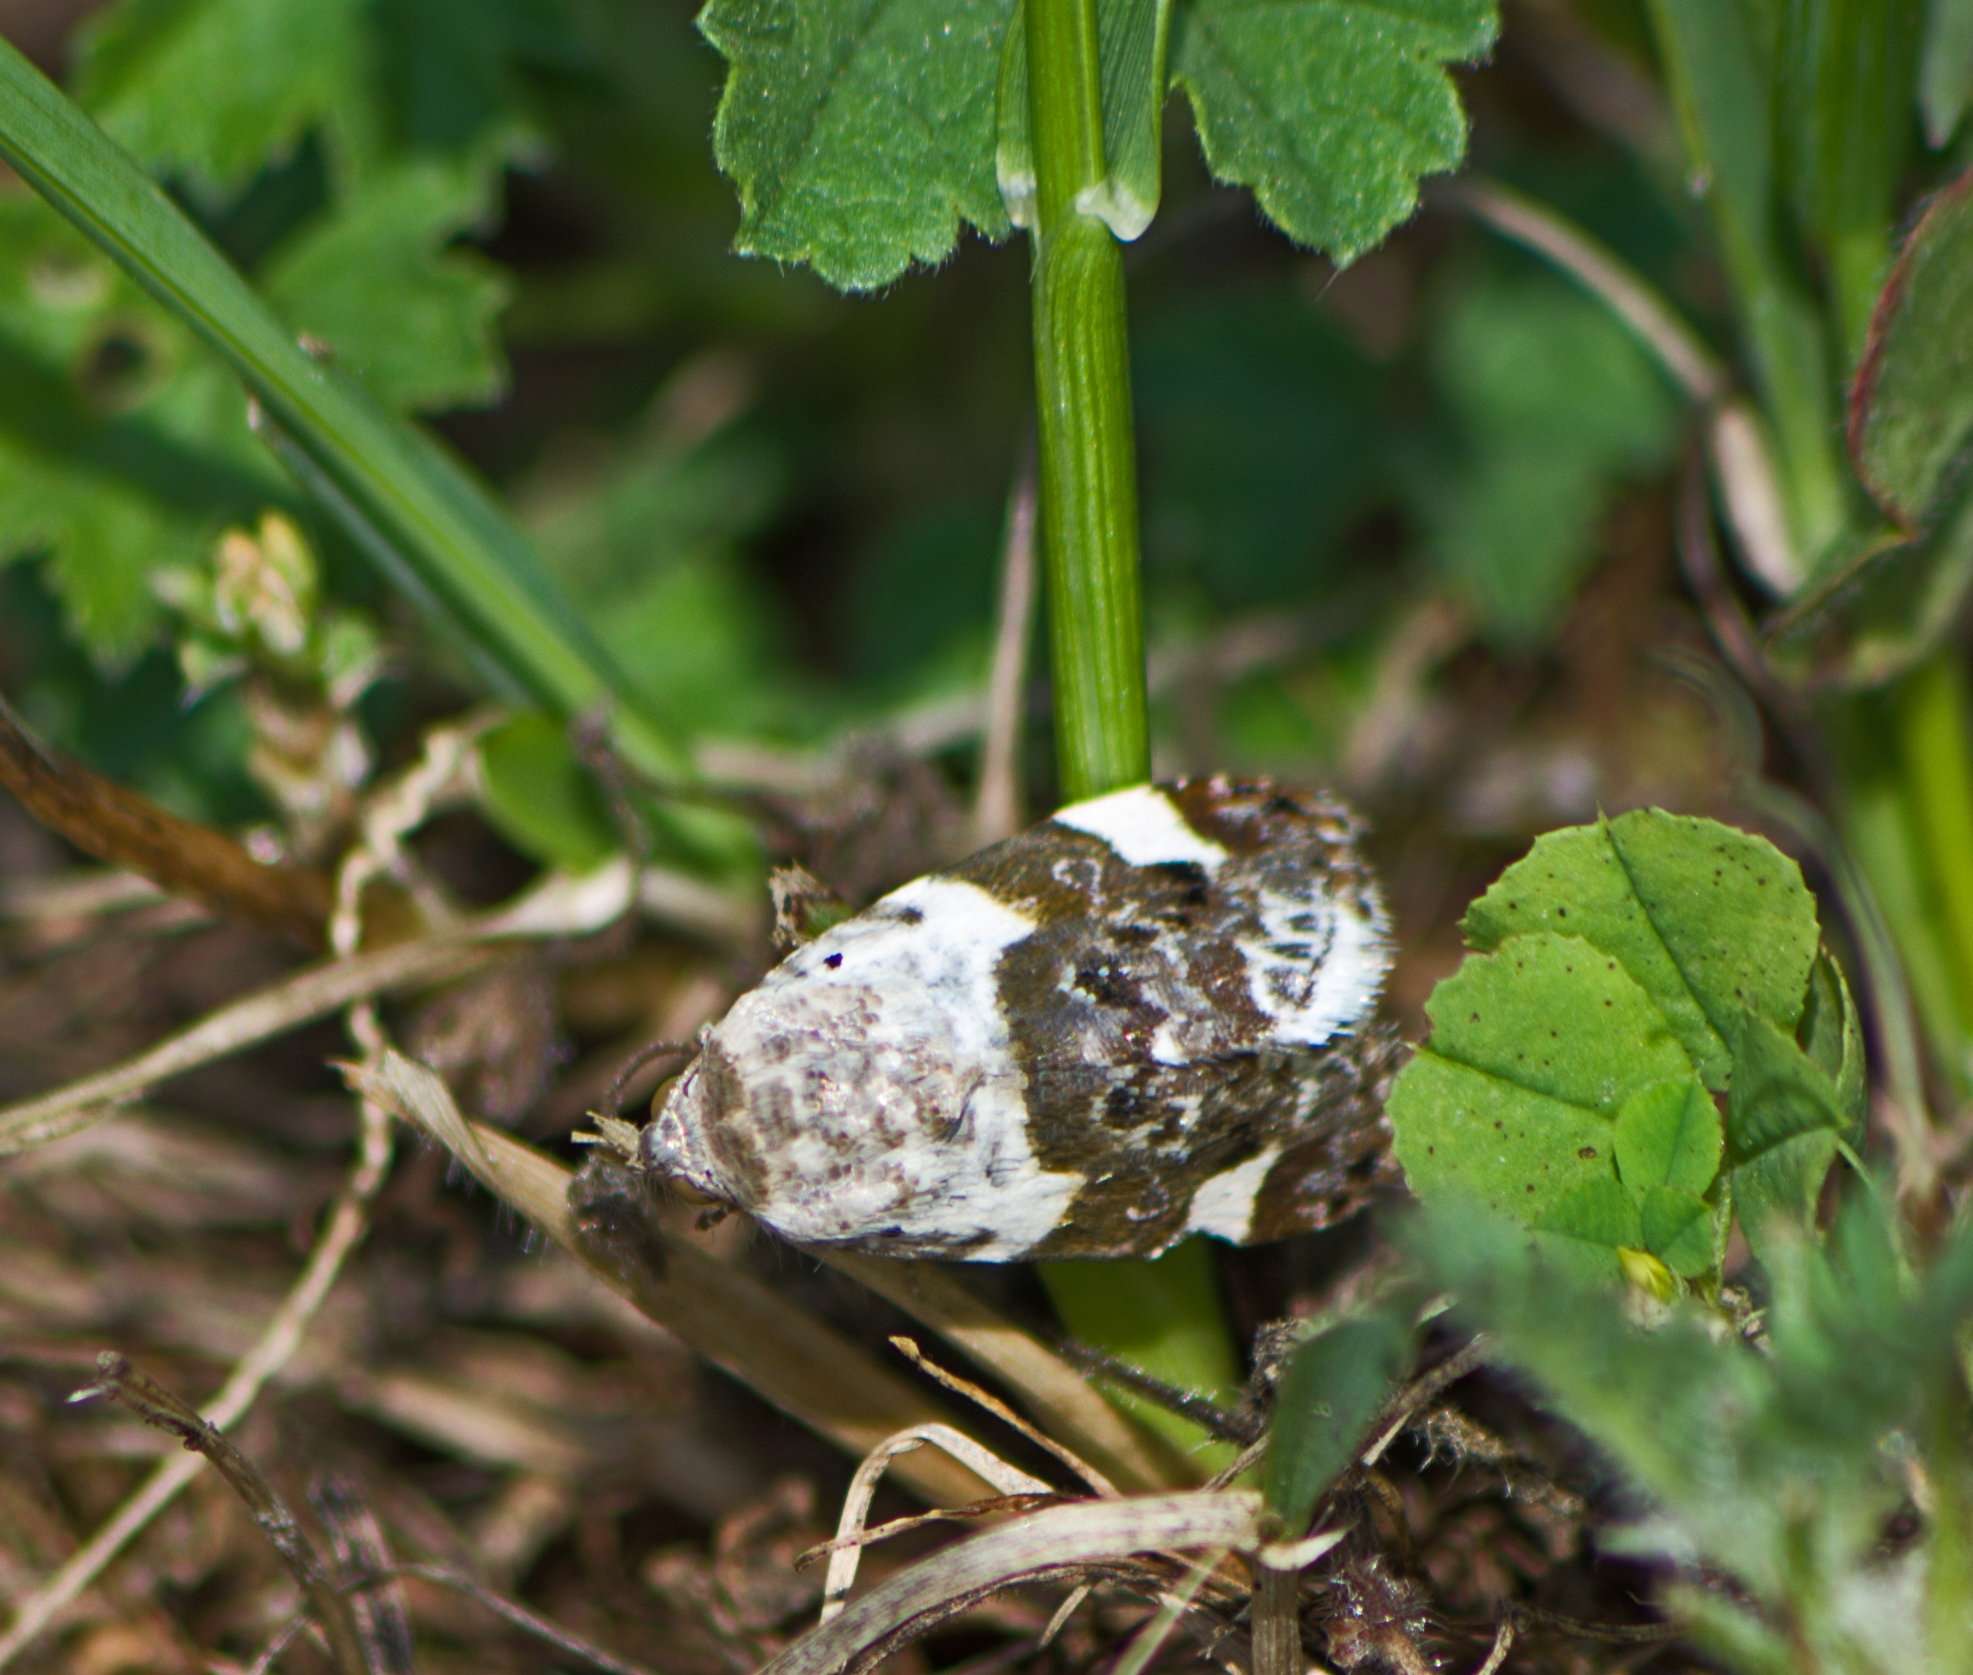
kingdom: Animalia
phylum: Arthropoda
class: Insecta
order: Lepidoptera
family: Noctuidae
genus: Acontia
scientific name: Acontia lucida
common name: Pale shoulder
